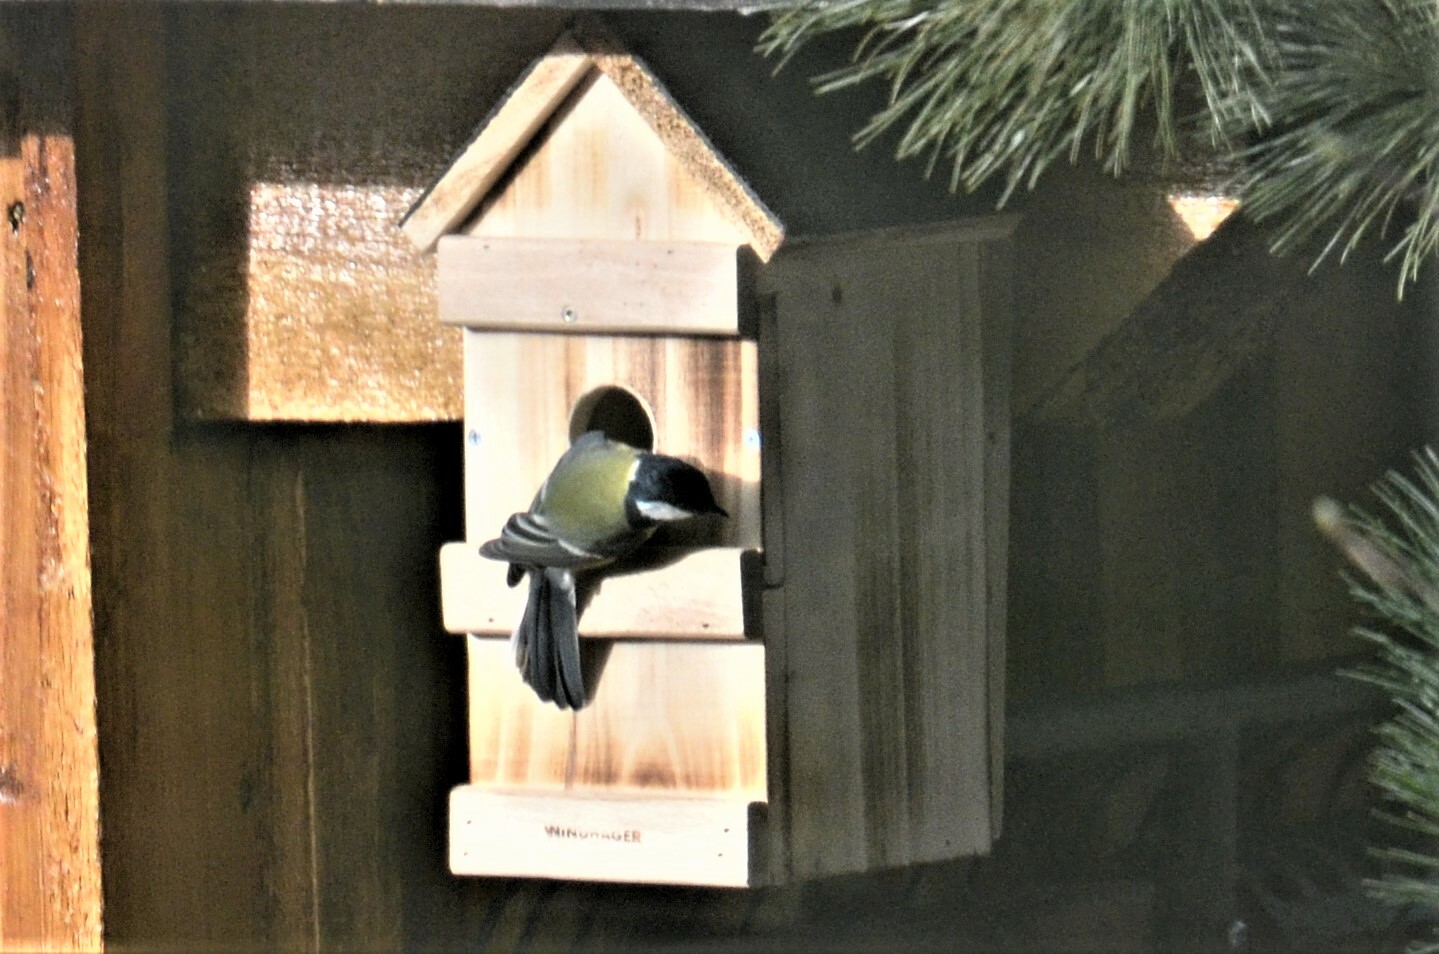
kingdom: Animalia
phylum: Chordata
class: Aves
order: Passeriformes
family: Paridae
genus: Parus
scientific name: Parus major
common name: Great tit
